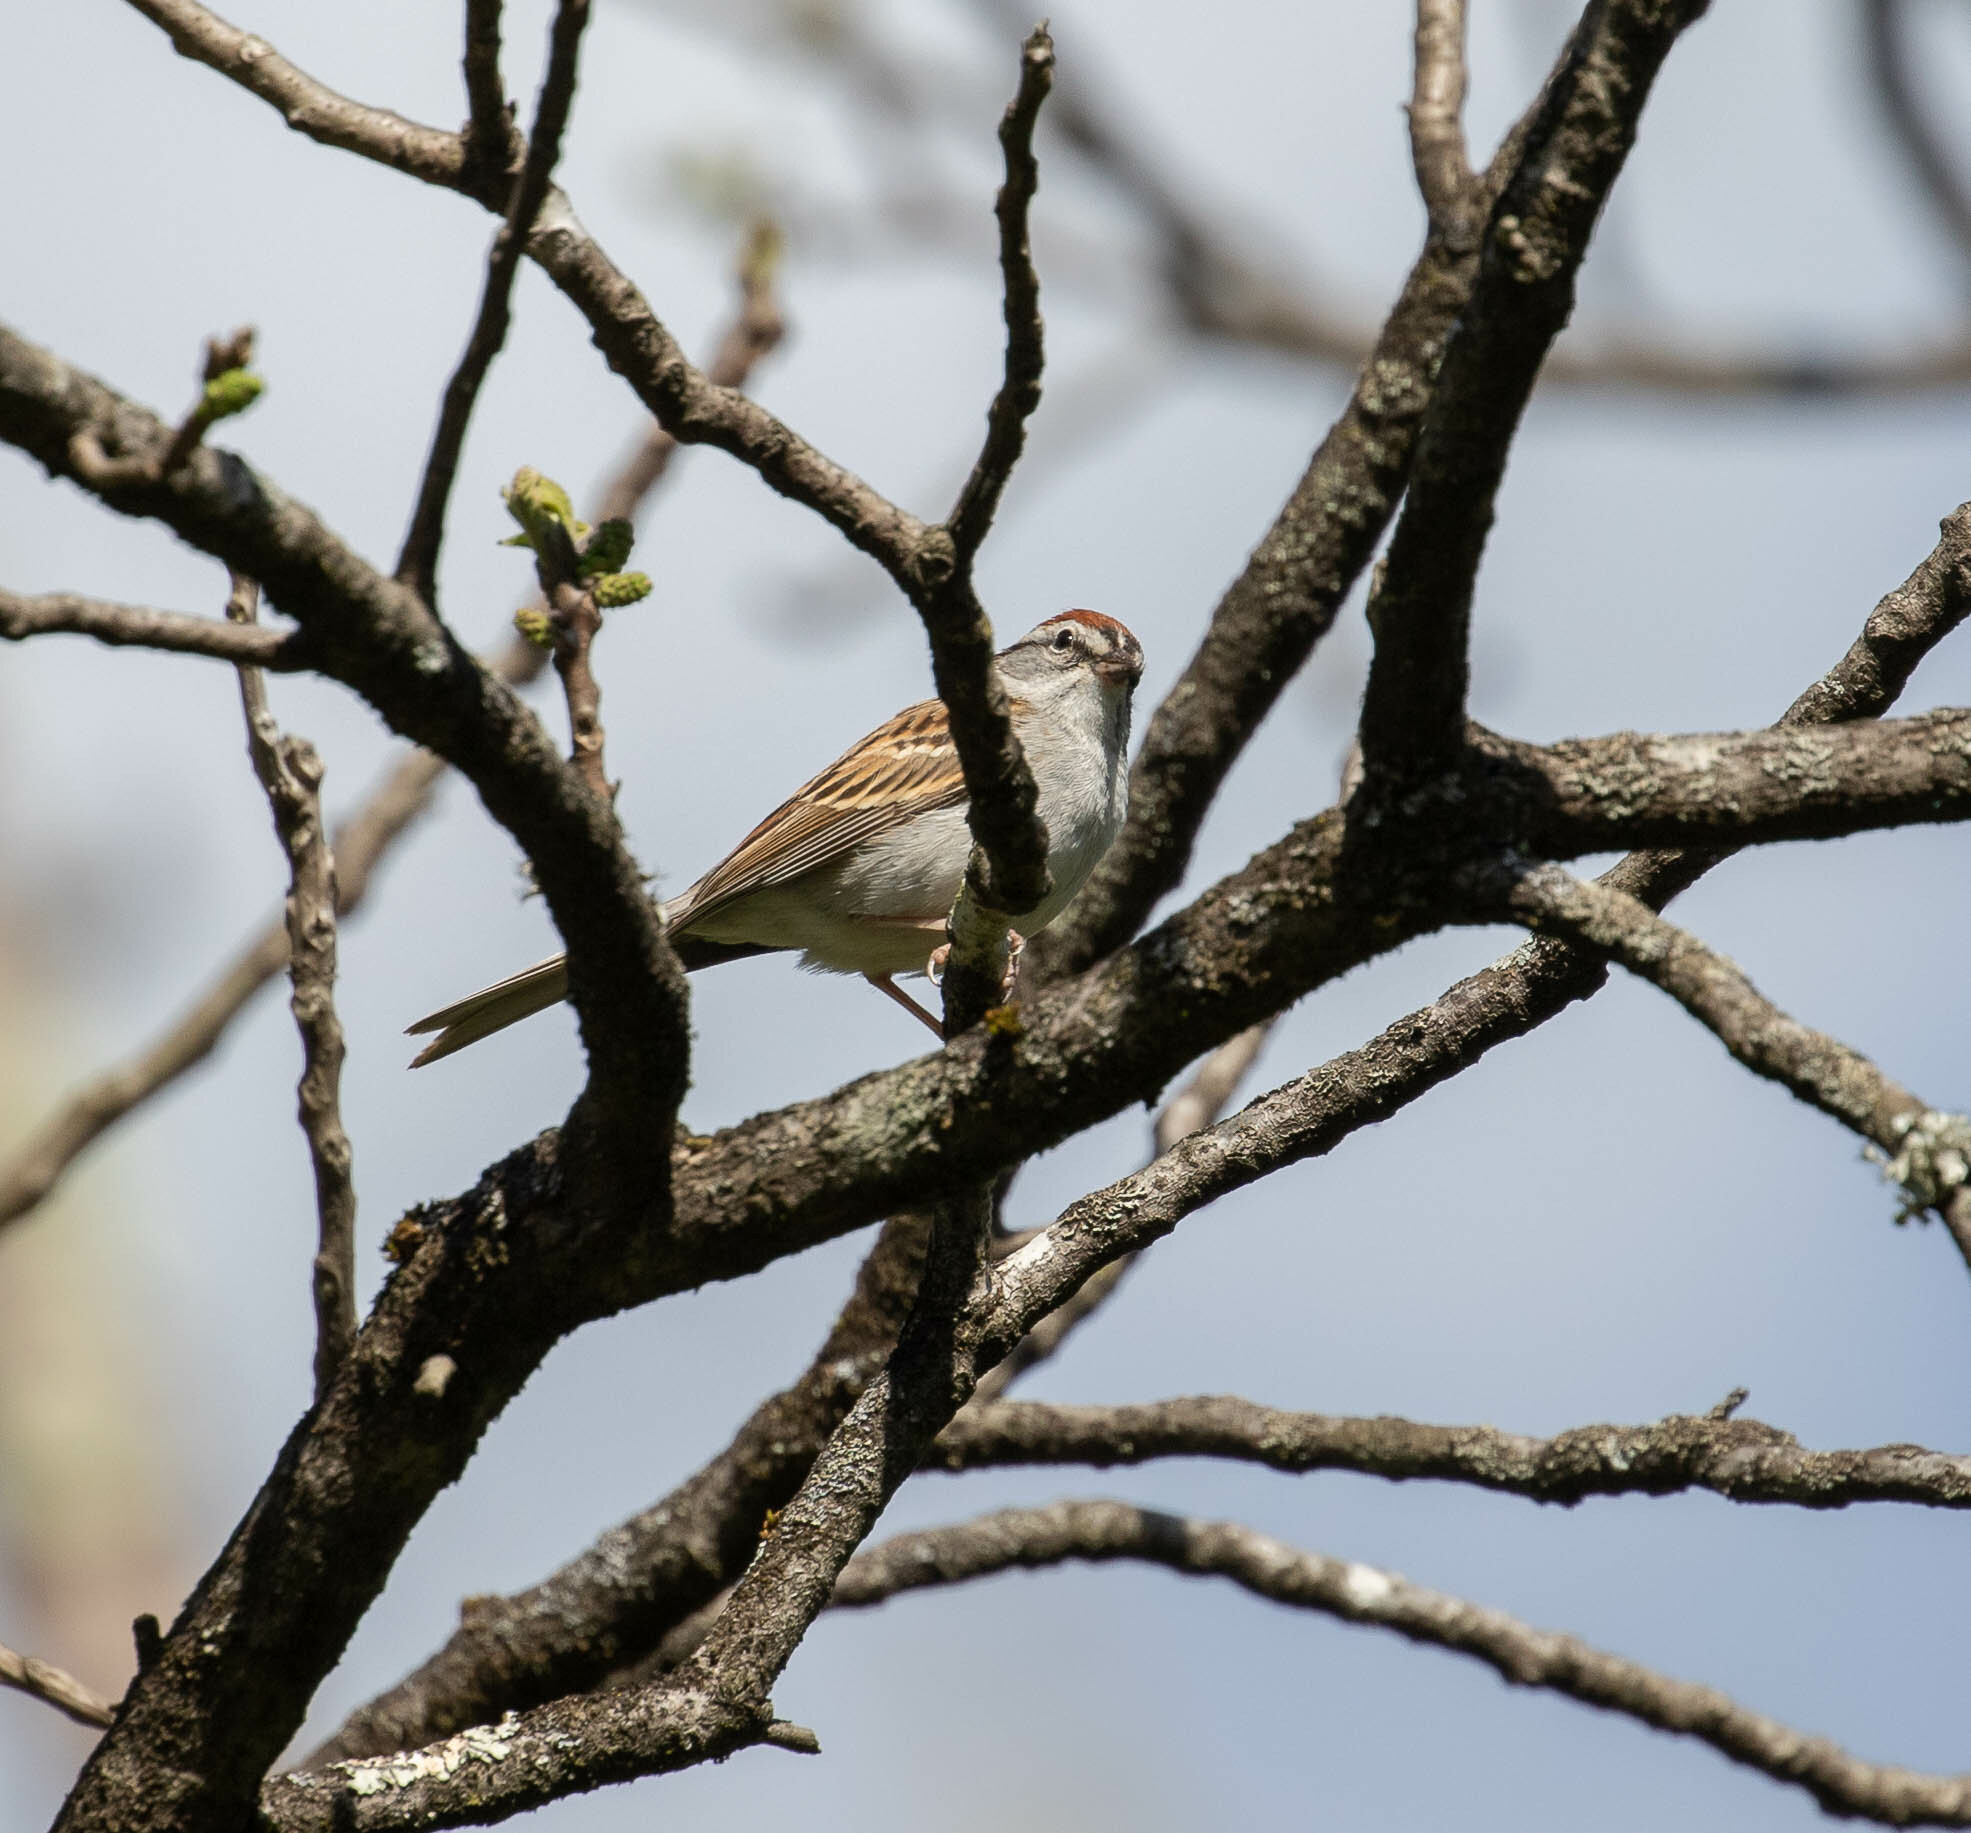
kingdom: Animalia
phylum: Chordata
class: Aves
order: Passeriformes
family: Passerellidae
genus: Spizella
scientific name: Spizella passerina
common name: Chipping sparrow
